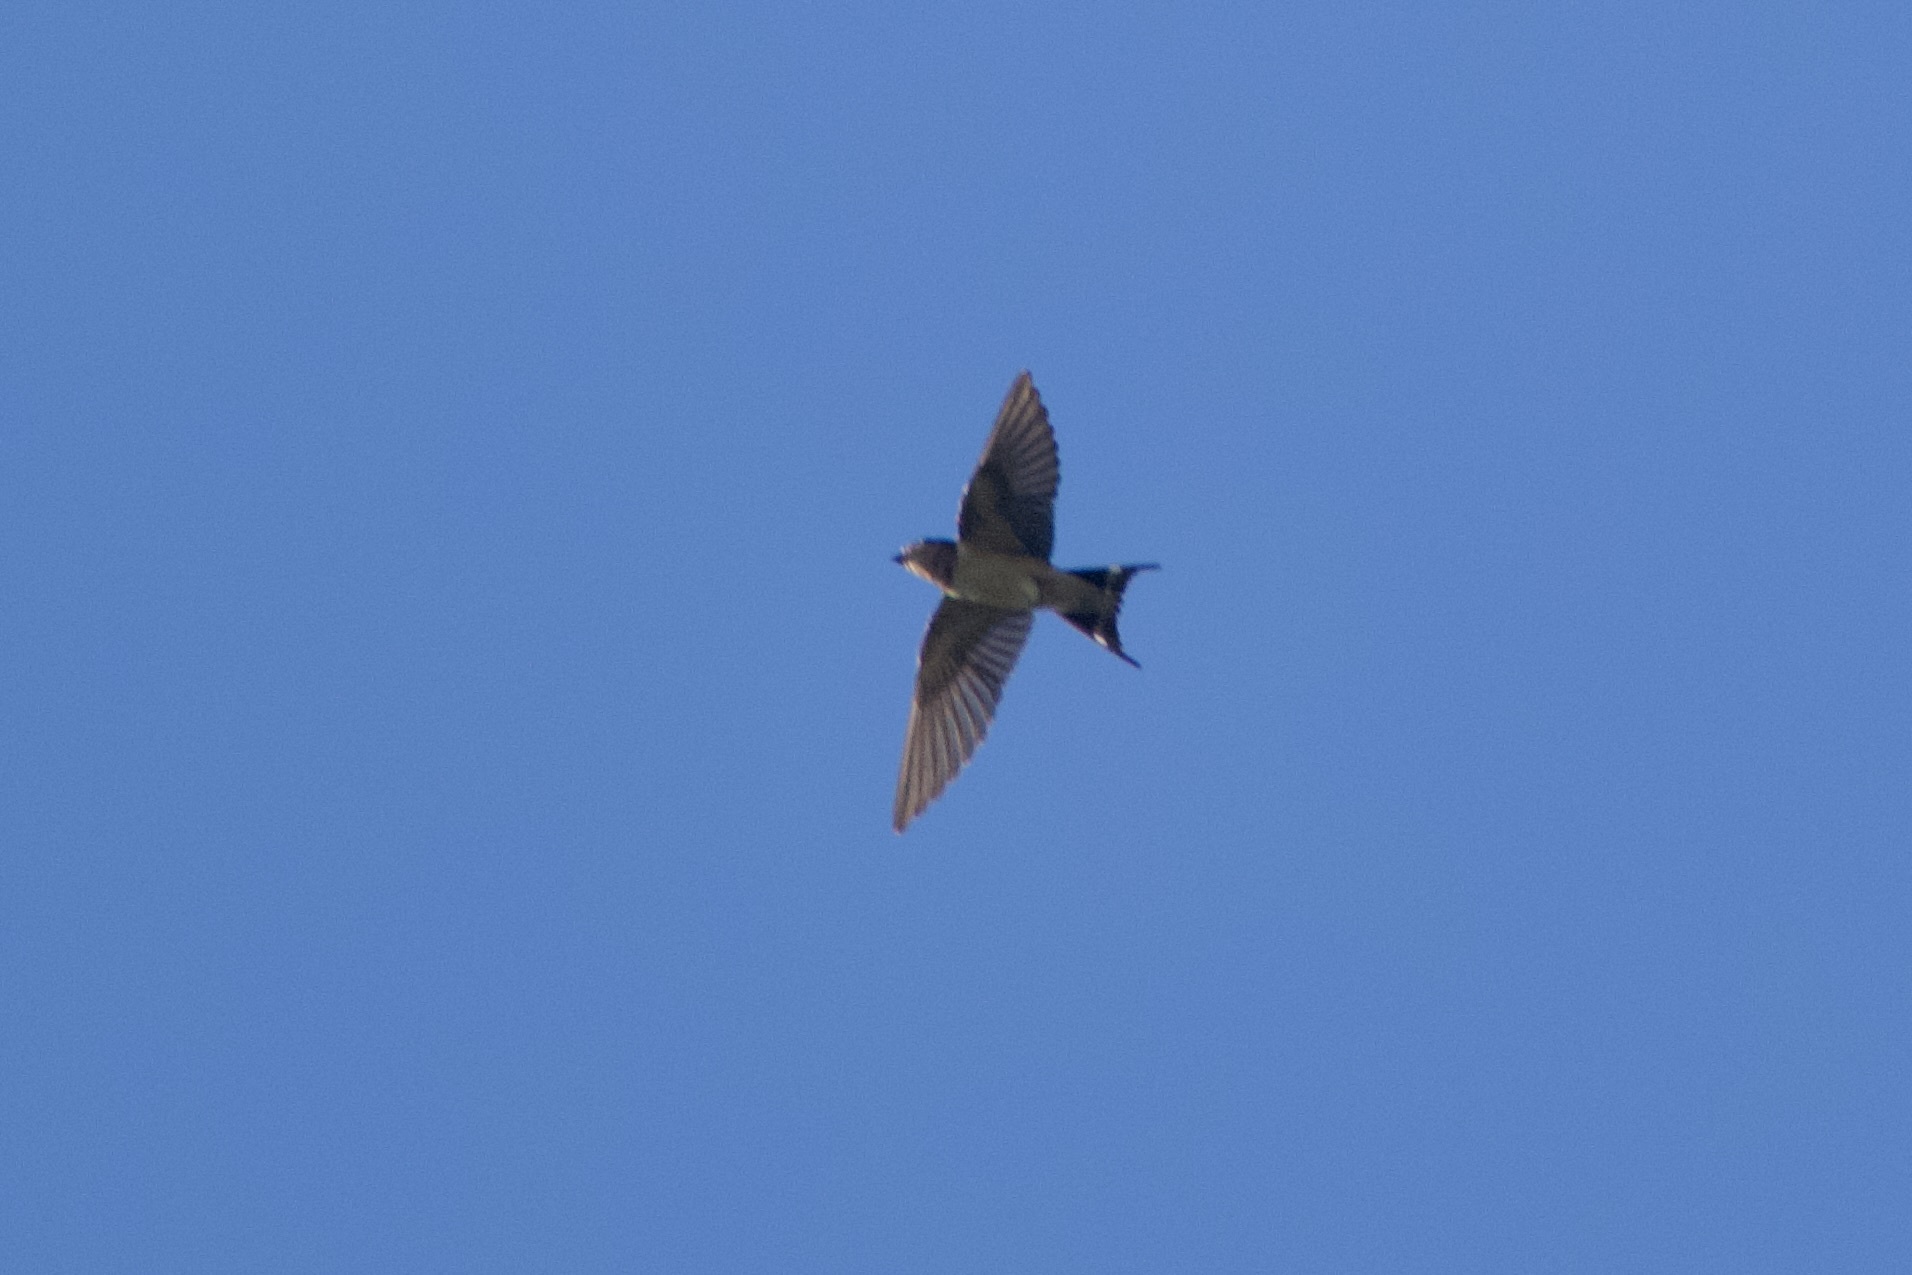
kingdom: Animalia
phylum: Chordata
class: Aves
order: Passeriformes
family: Hirundinidae
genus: Hirundo
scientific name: Hirundo rustica
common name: Barn swallow
